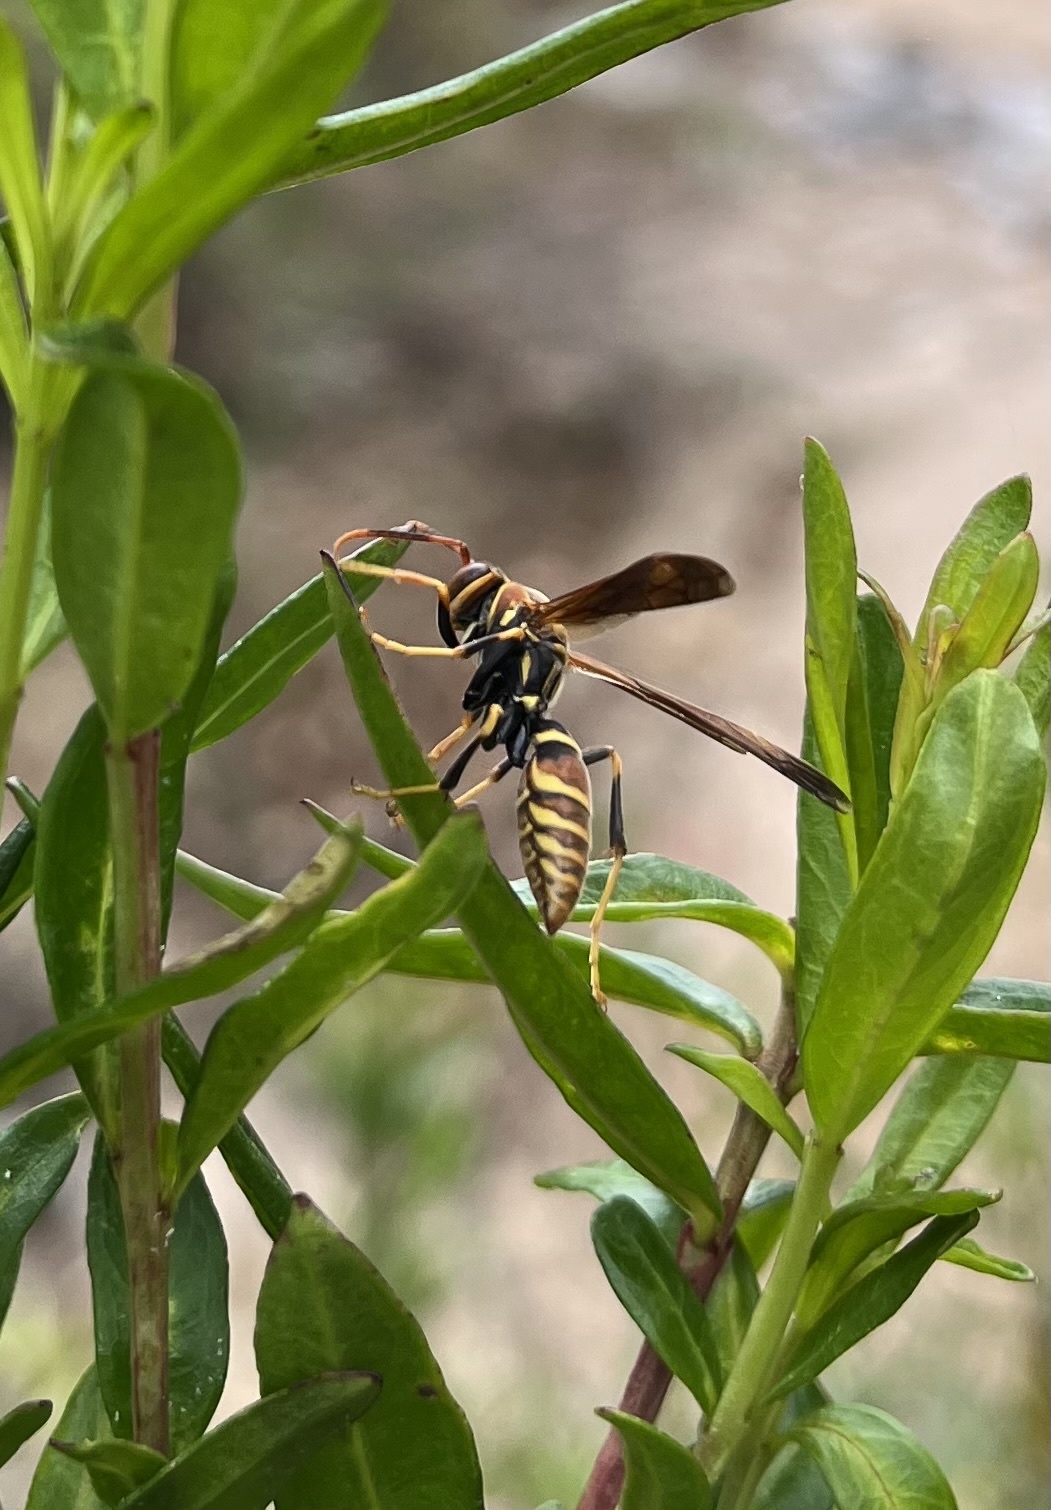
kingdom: Animalia
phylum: Arthropoda
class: Insecta
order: Hymenoptera
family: Eumenidae
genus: Polistes
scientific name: Polistes lineonotus
